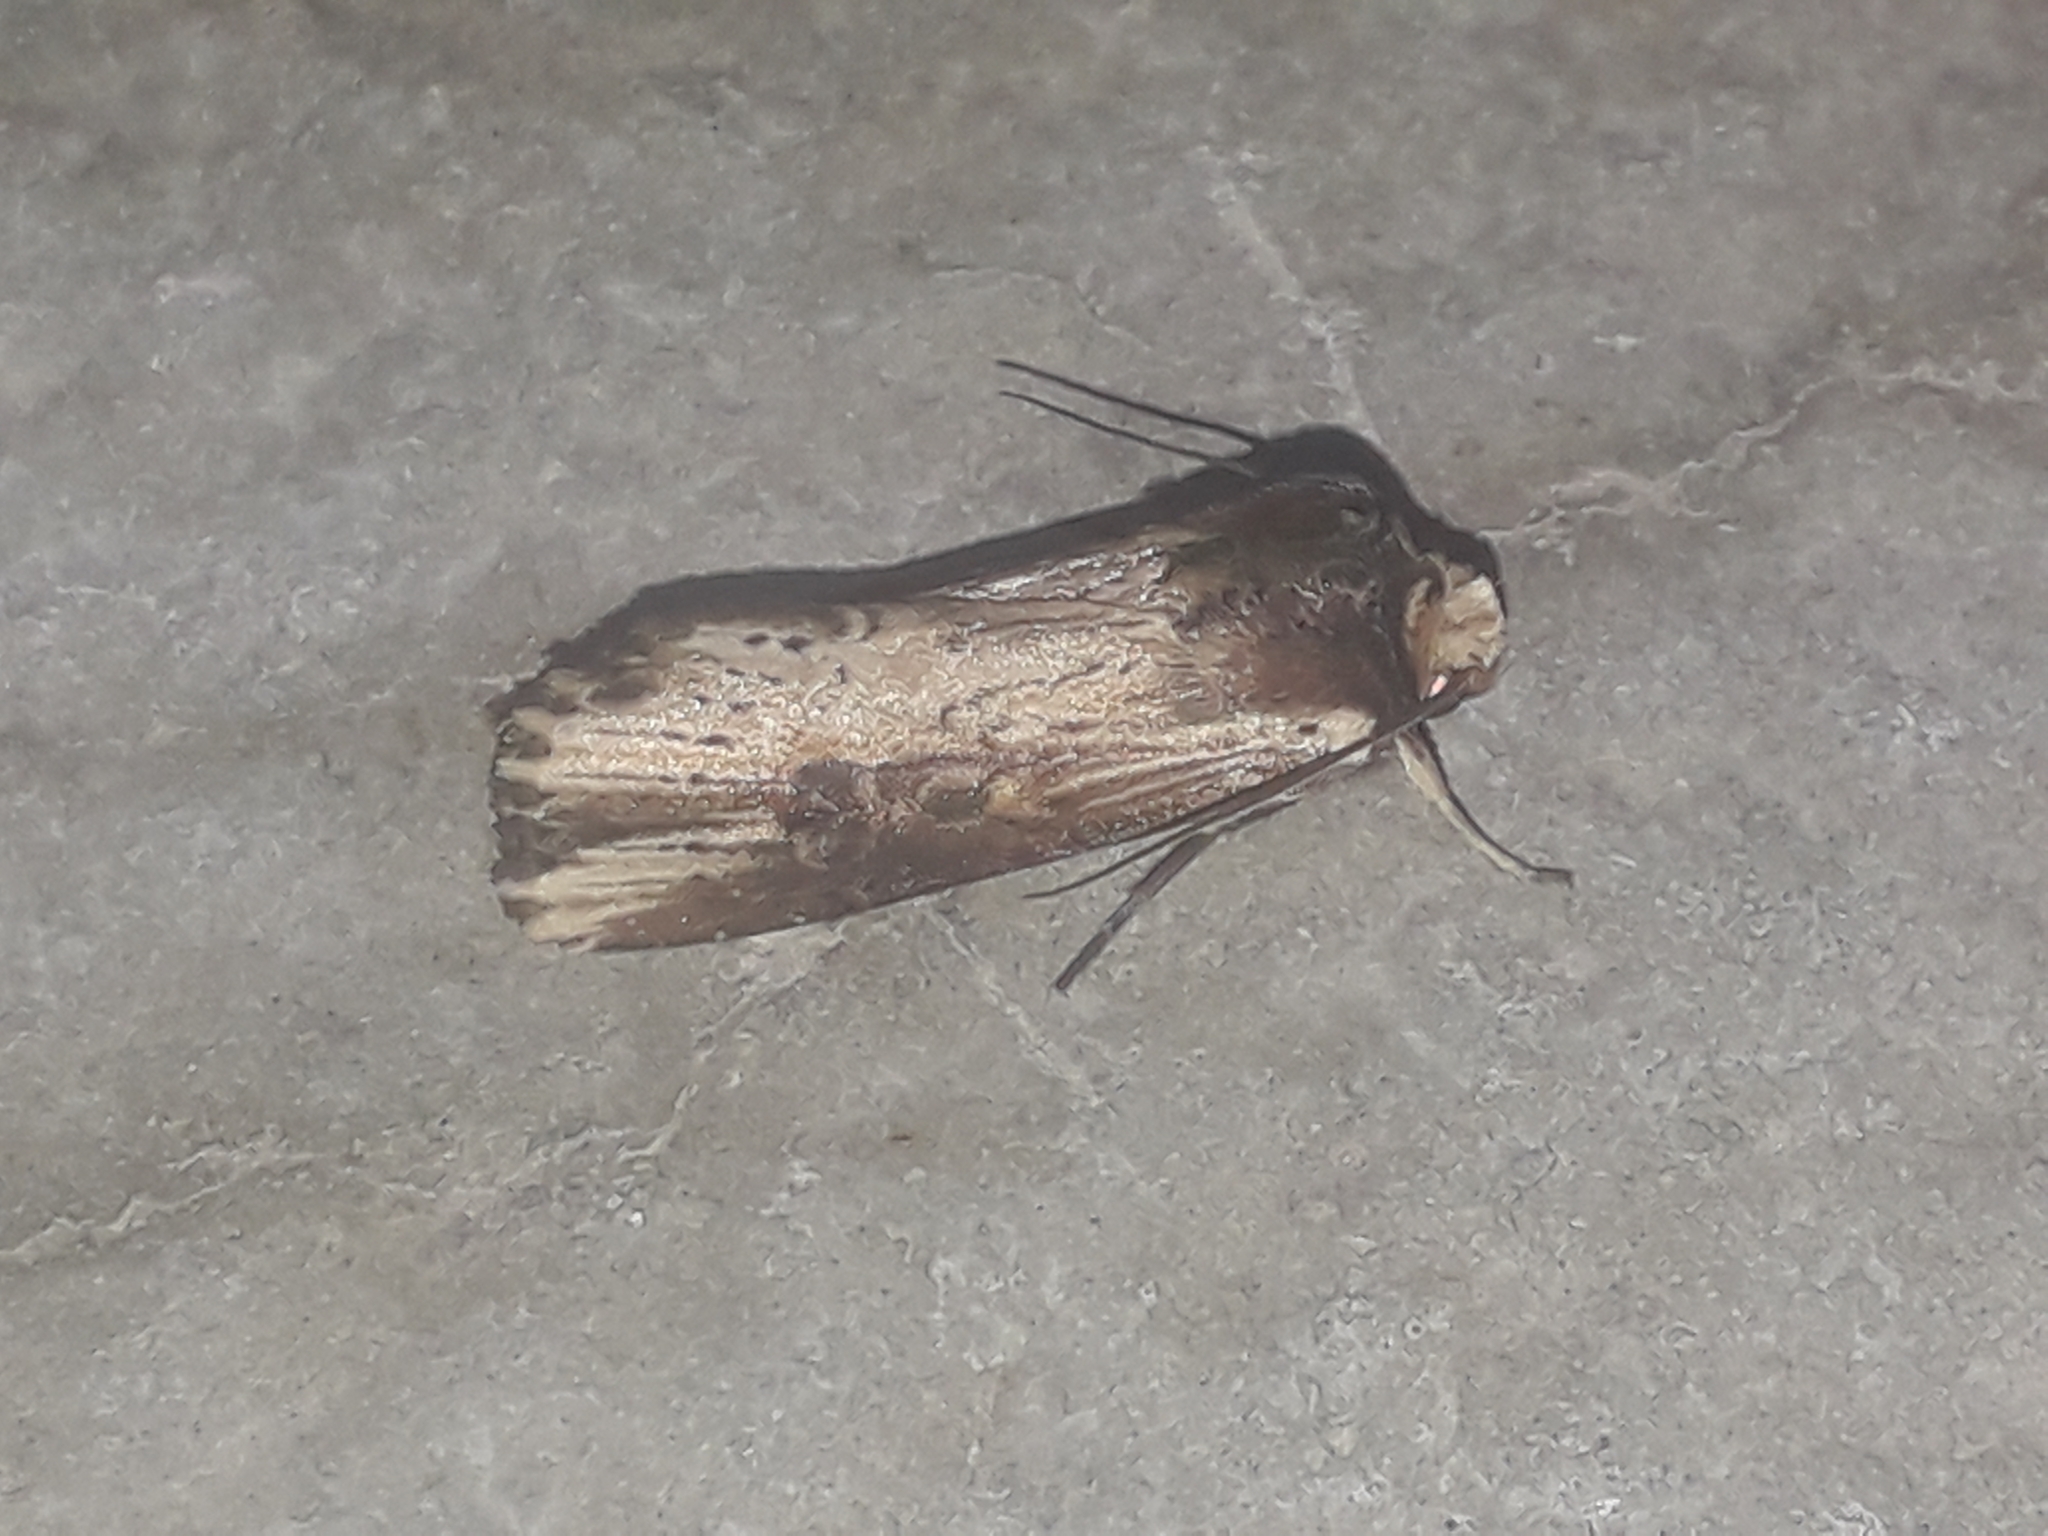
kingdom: Animalia
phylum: Arthropoda
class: Insecta
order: Lepidoptera
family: Noctuidae
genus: Axylia
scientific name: Axylia putris
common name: Flame
